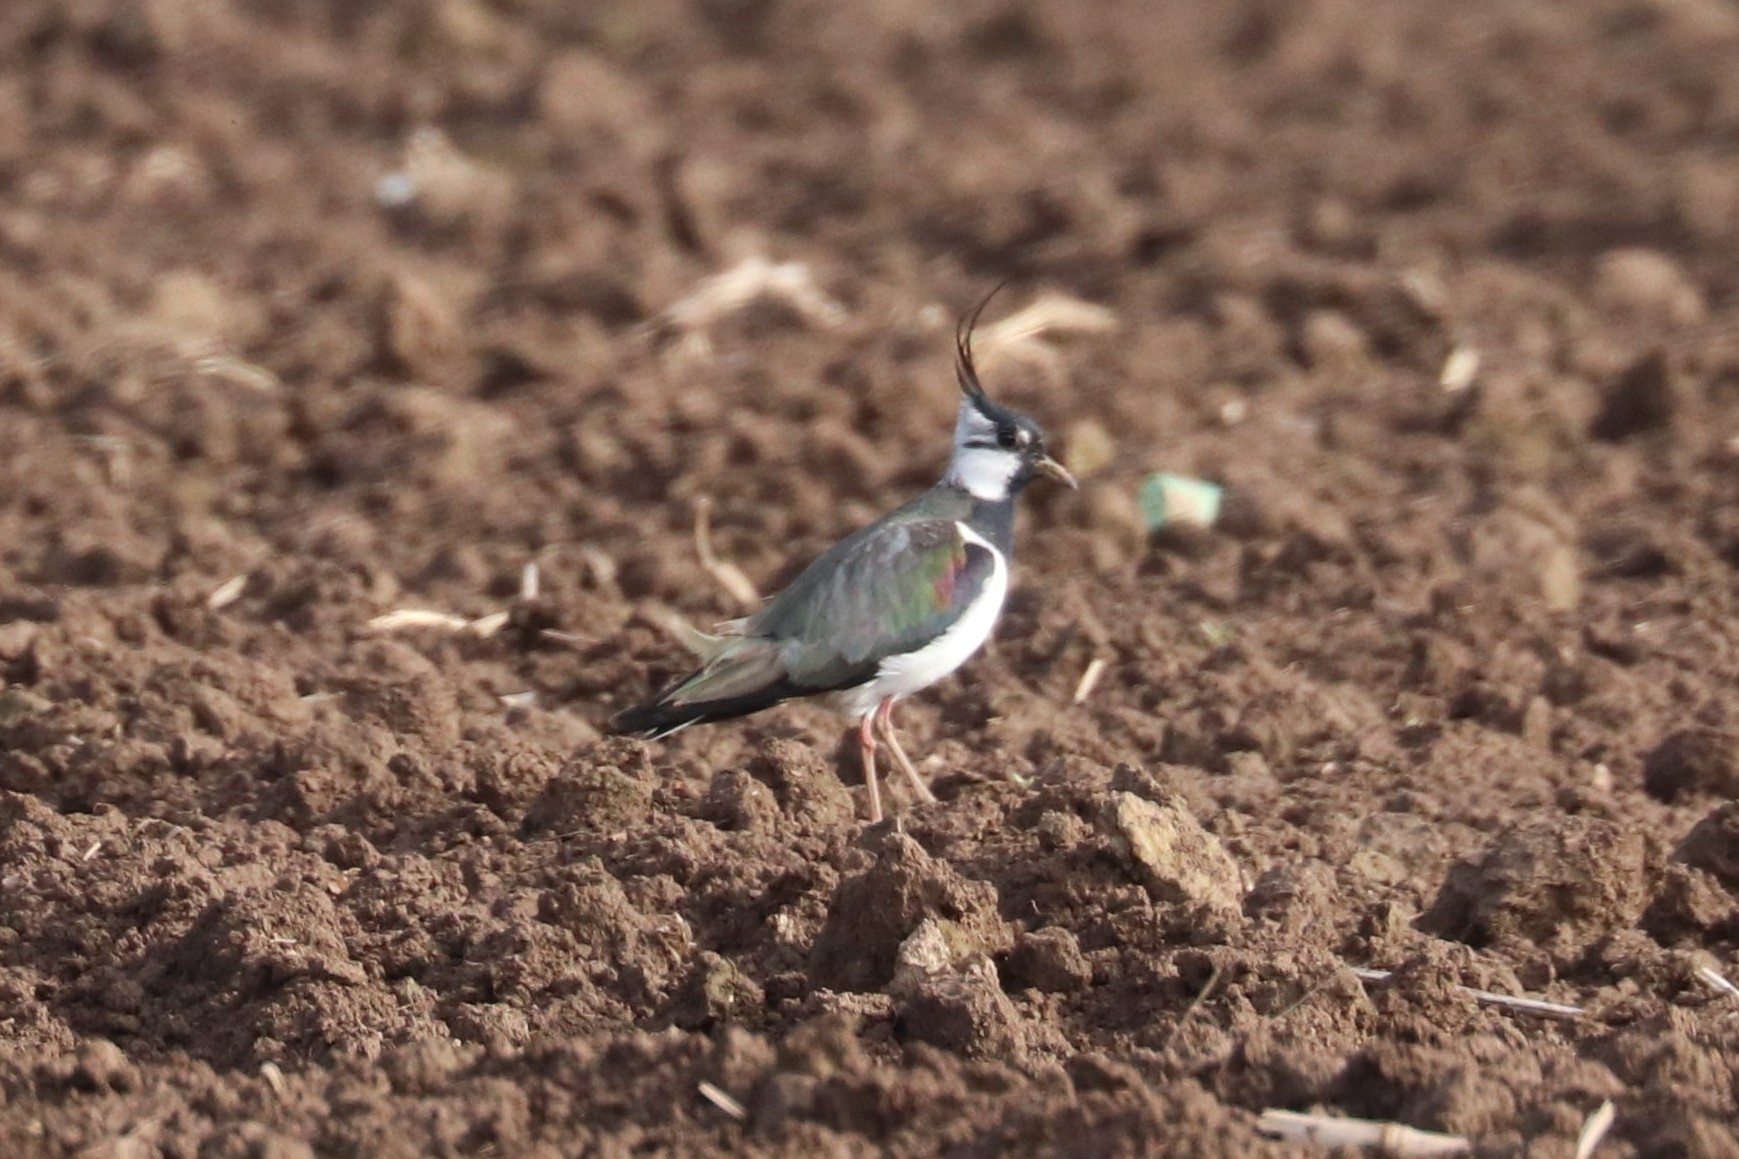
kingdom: Animalia
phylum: Chordata
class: Aves
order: Charadriiformes
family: Charadriidae
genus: Vanellus
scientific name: Vanellus vanellus
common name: Northern lapwing
